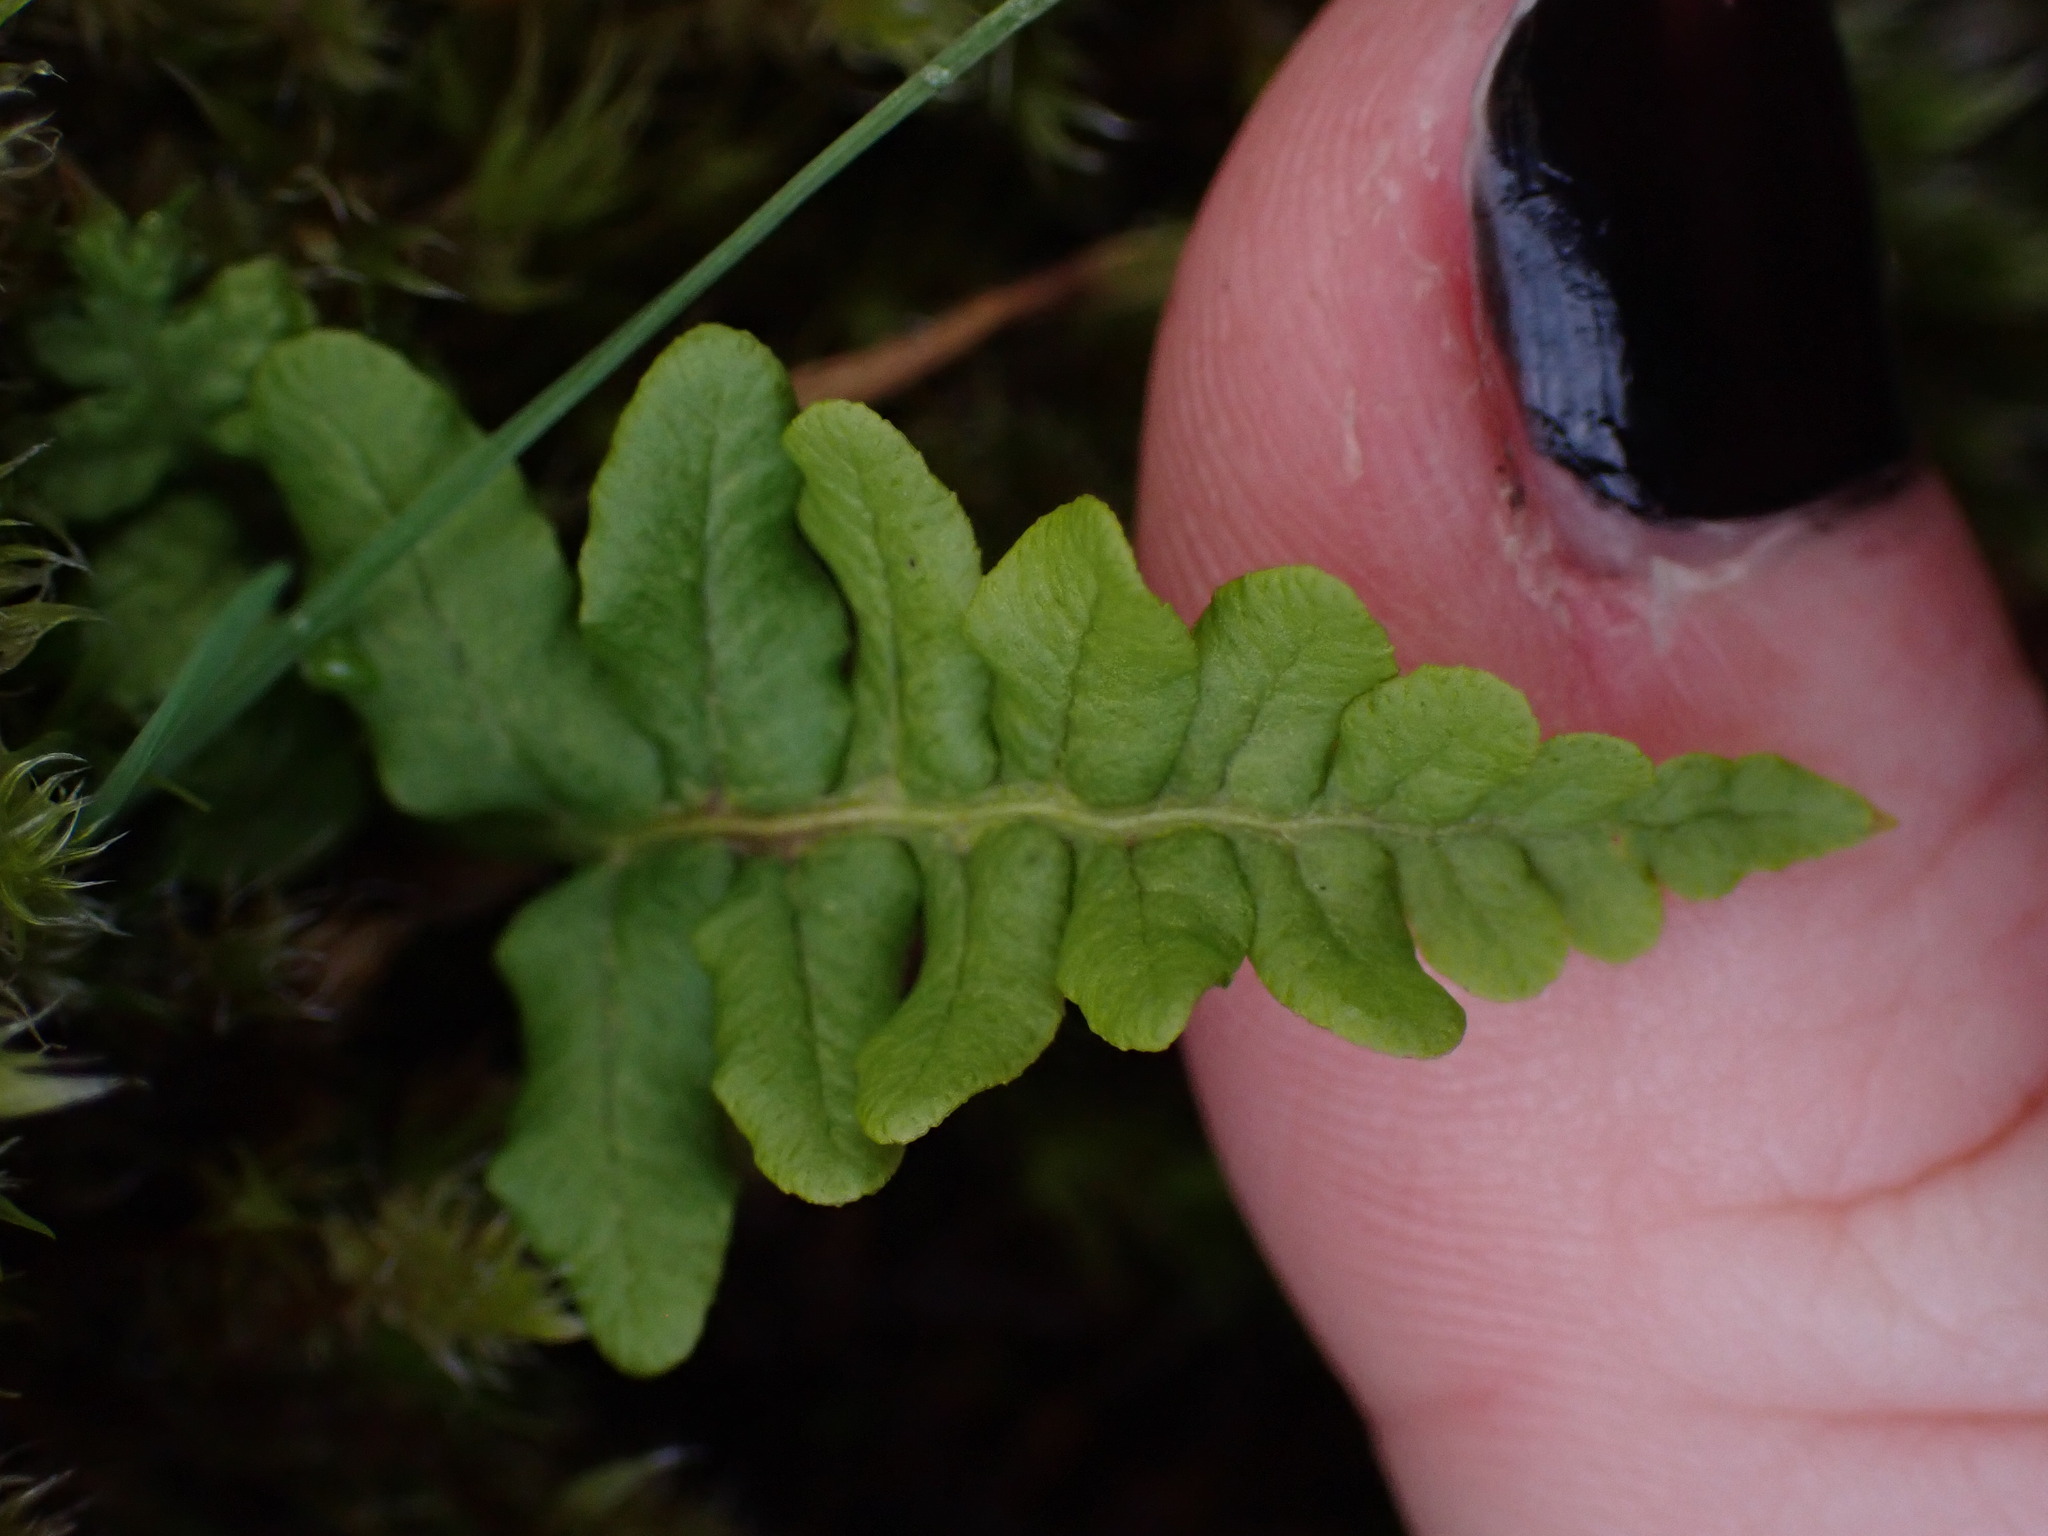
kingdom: Plantae
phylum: Tracheophyta
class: Polypodiopsida
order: Polypodiales
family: Polypodiaceae
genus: Polypodium
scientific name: Polypodium glycyrrhiza
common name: Licorice fern
